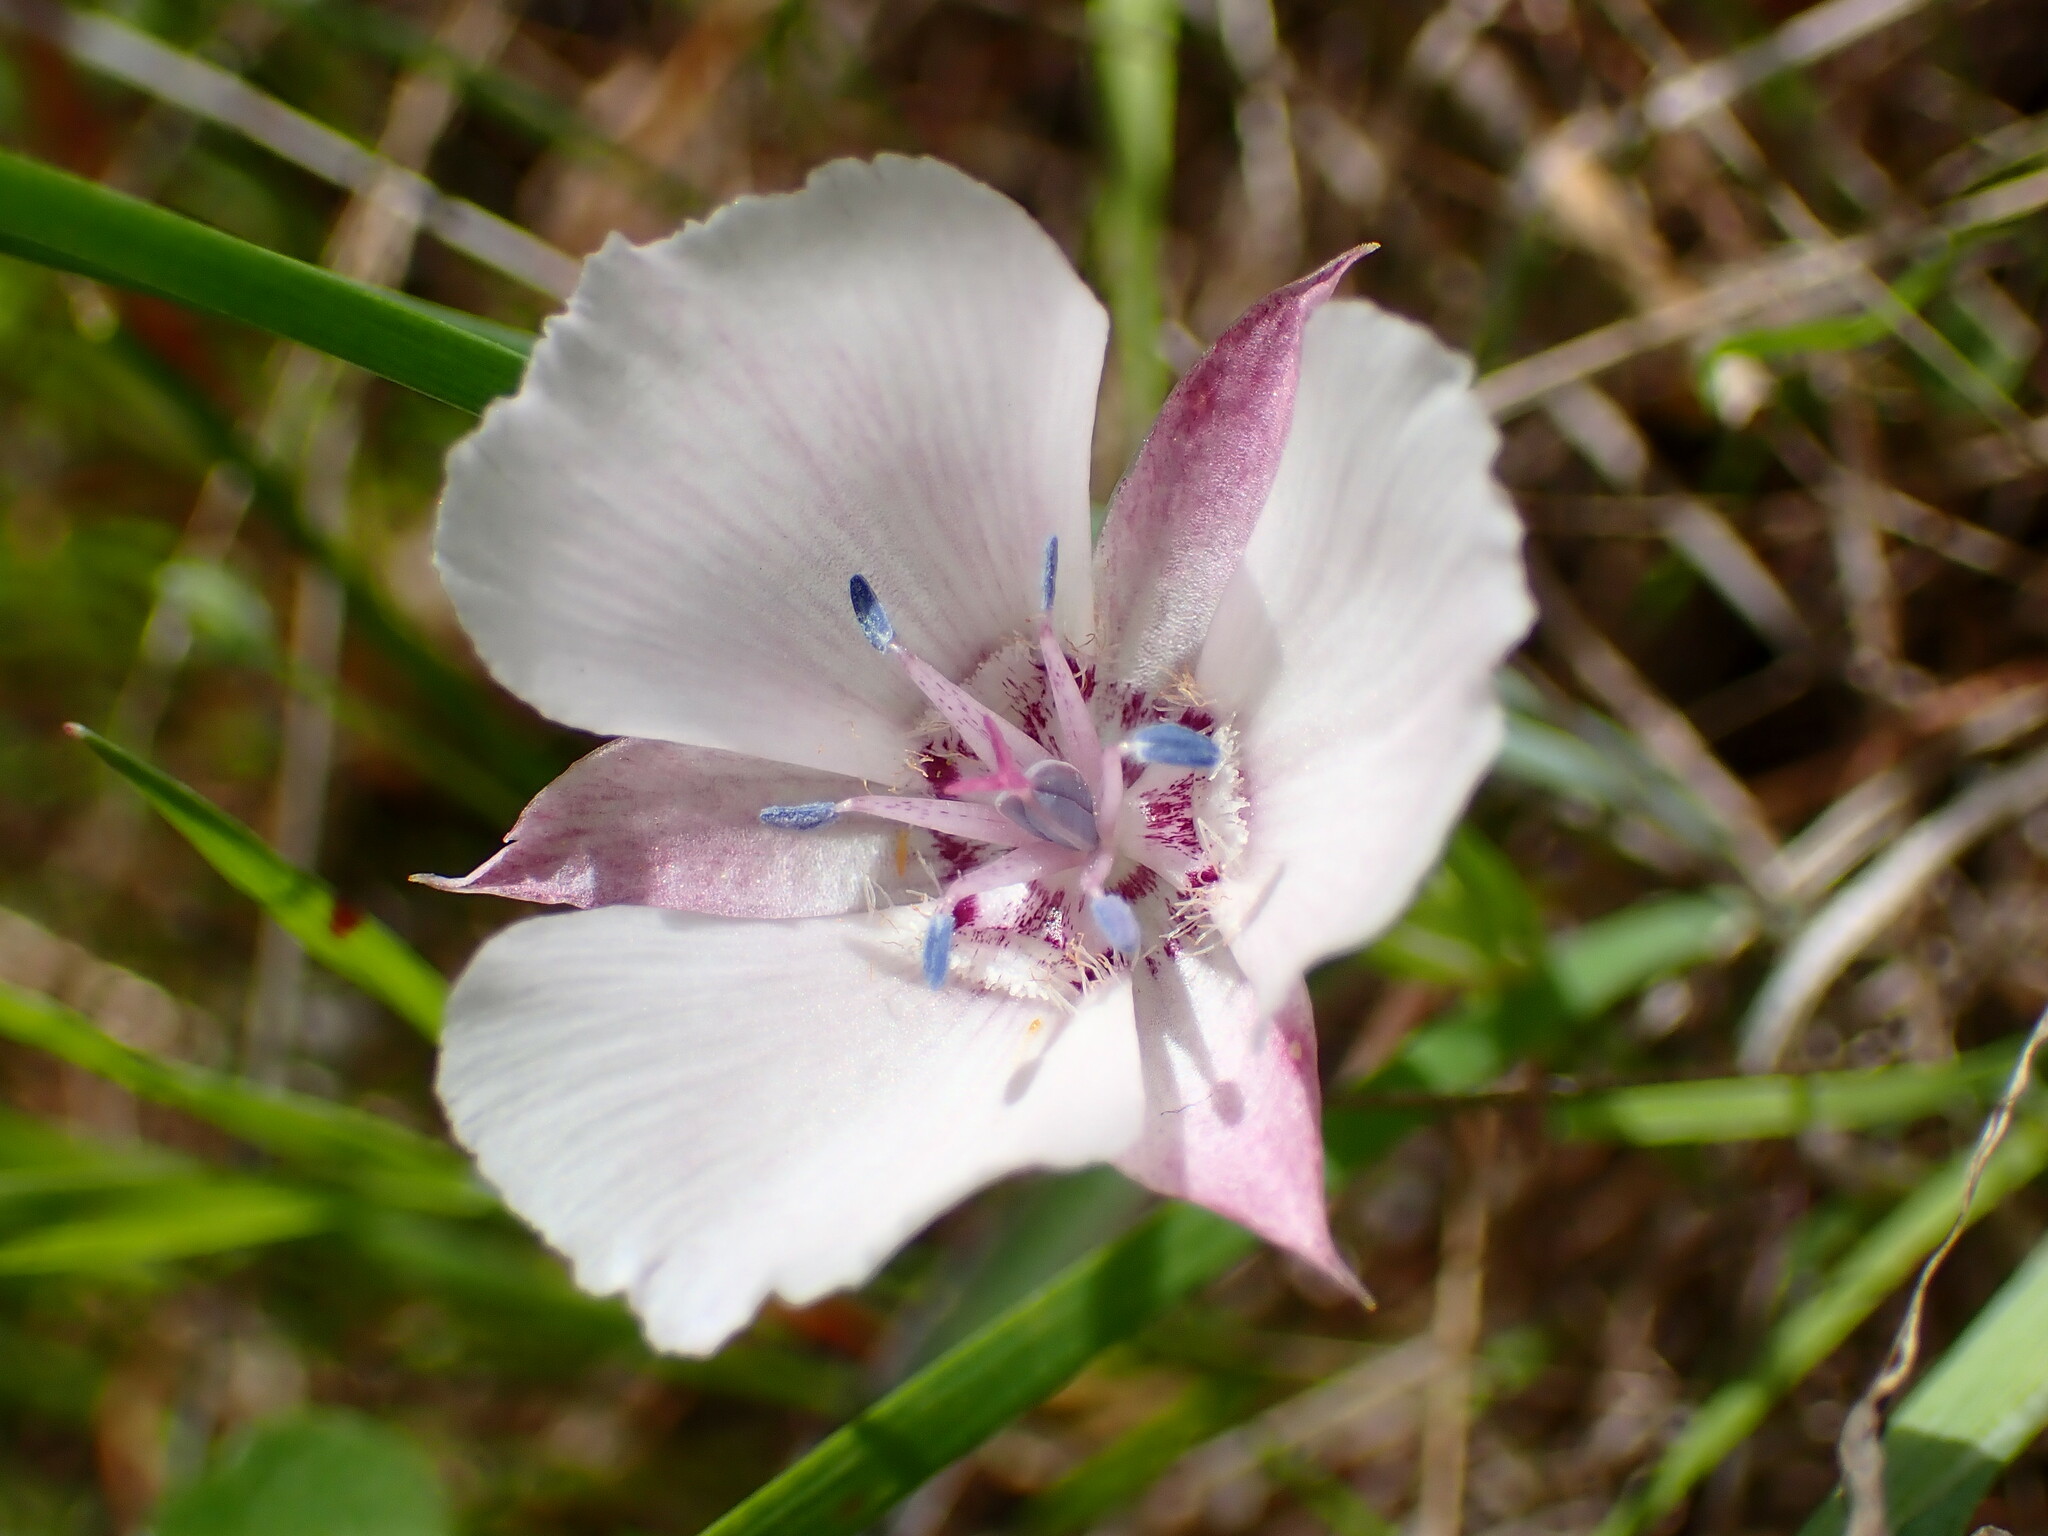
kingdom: Plantae
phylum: Tracheophyta
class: Liliopsida
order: Liliales
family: Liliaceae
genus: Calochortus
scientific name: Calochortus umbellatus
